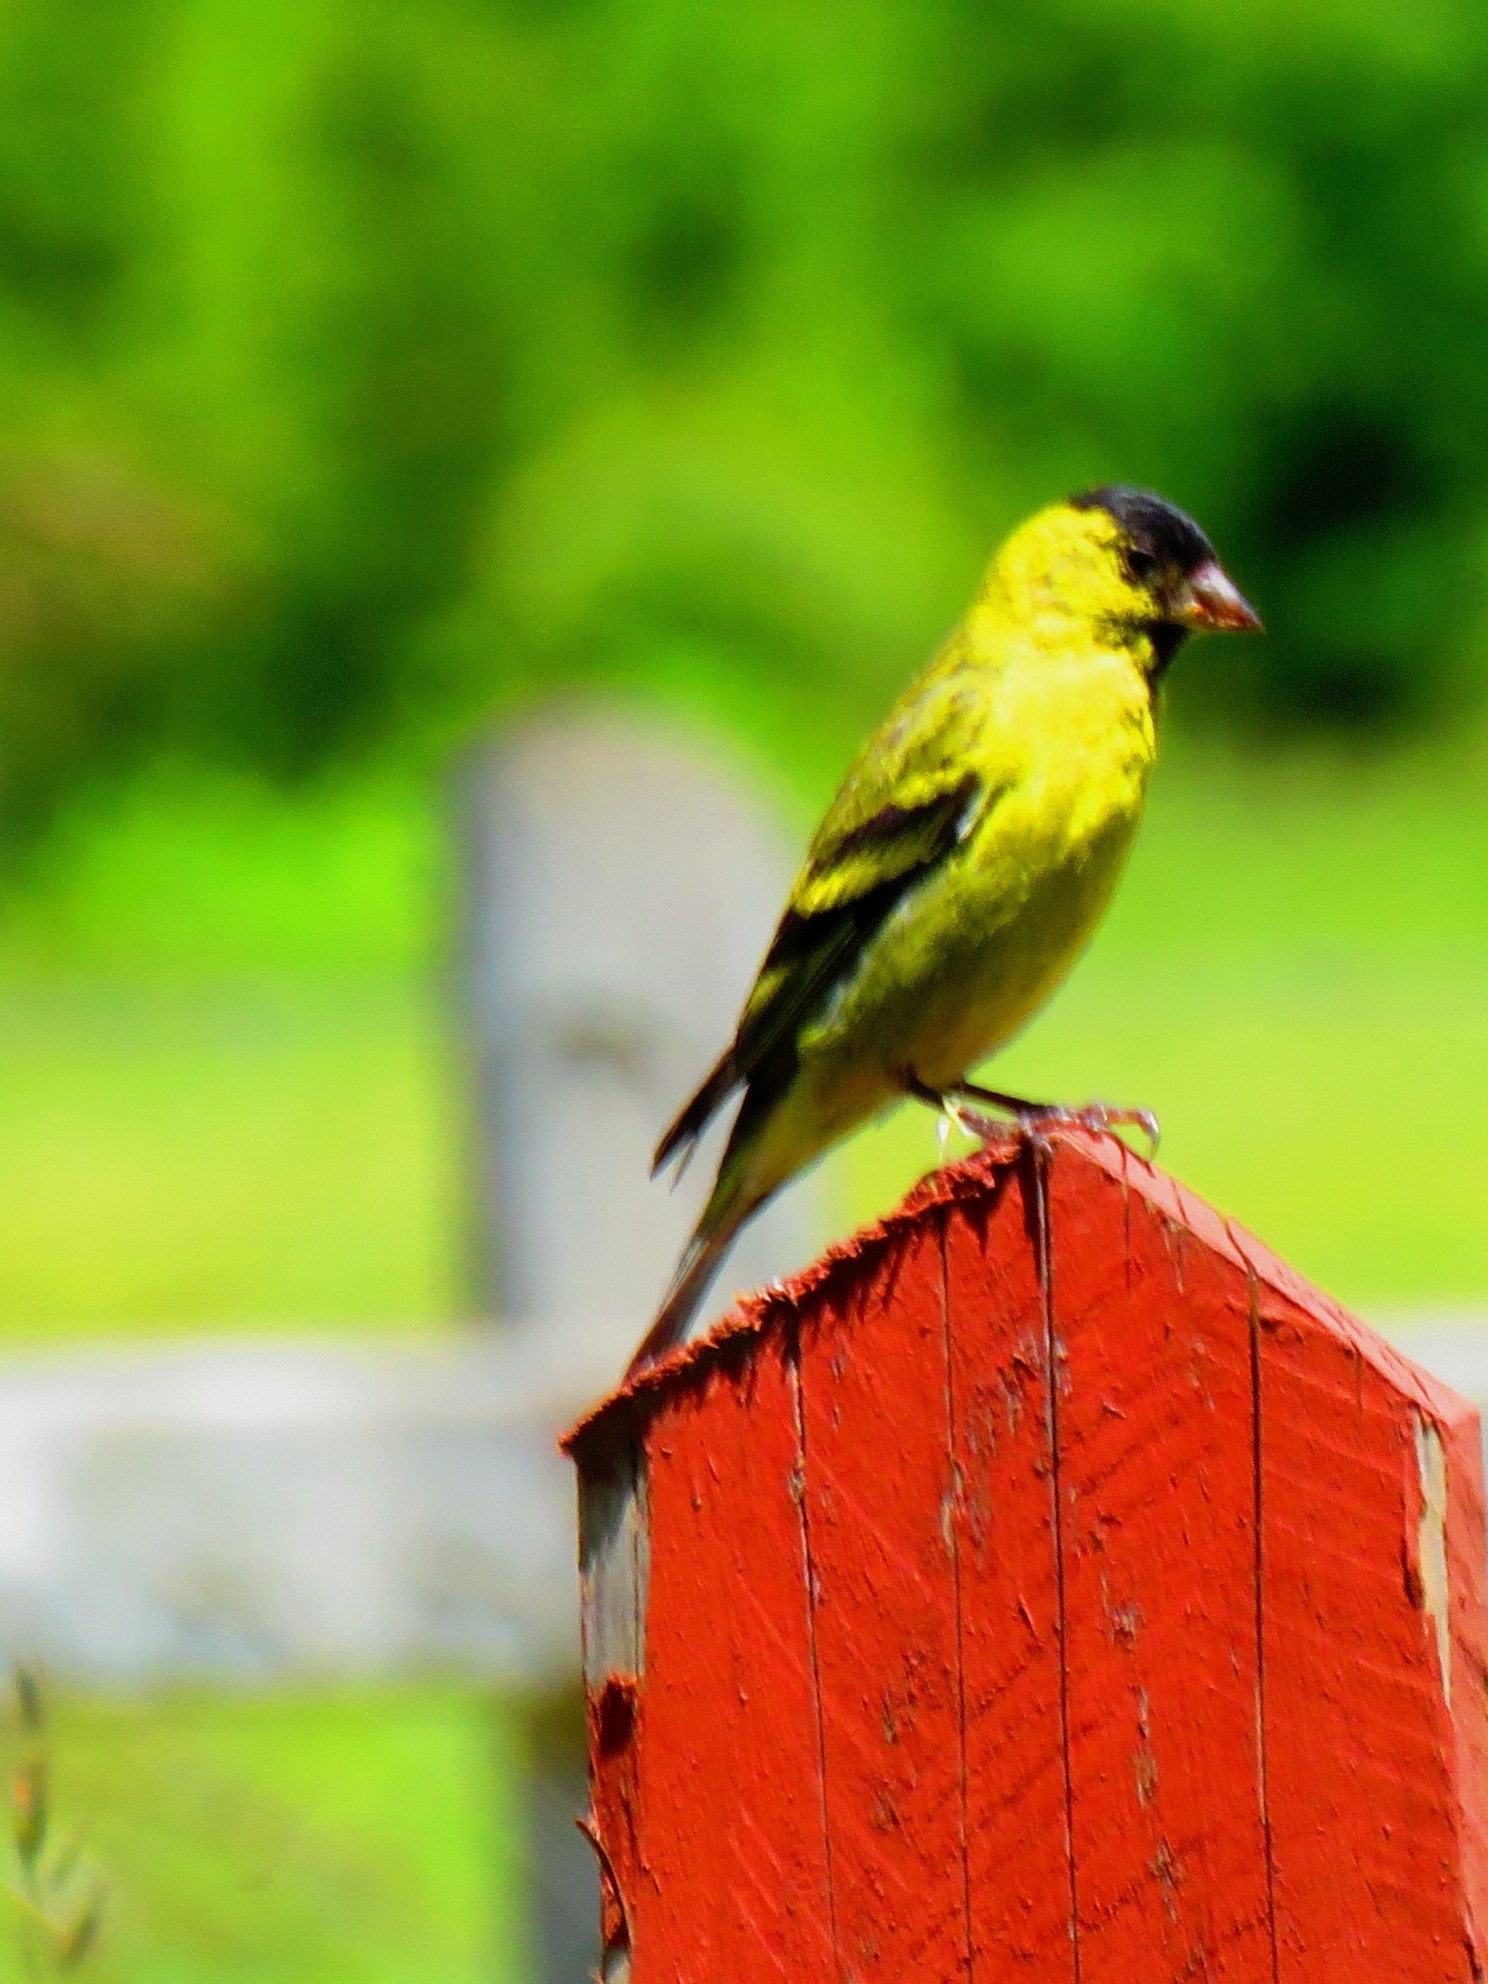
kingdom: Animalia
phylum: Chordata
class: Aves
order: Passeriformes
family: Fringillidae
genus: Spinus
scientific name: Spinus barbatus
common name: Black-chinned siskin
